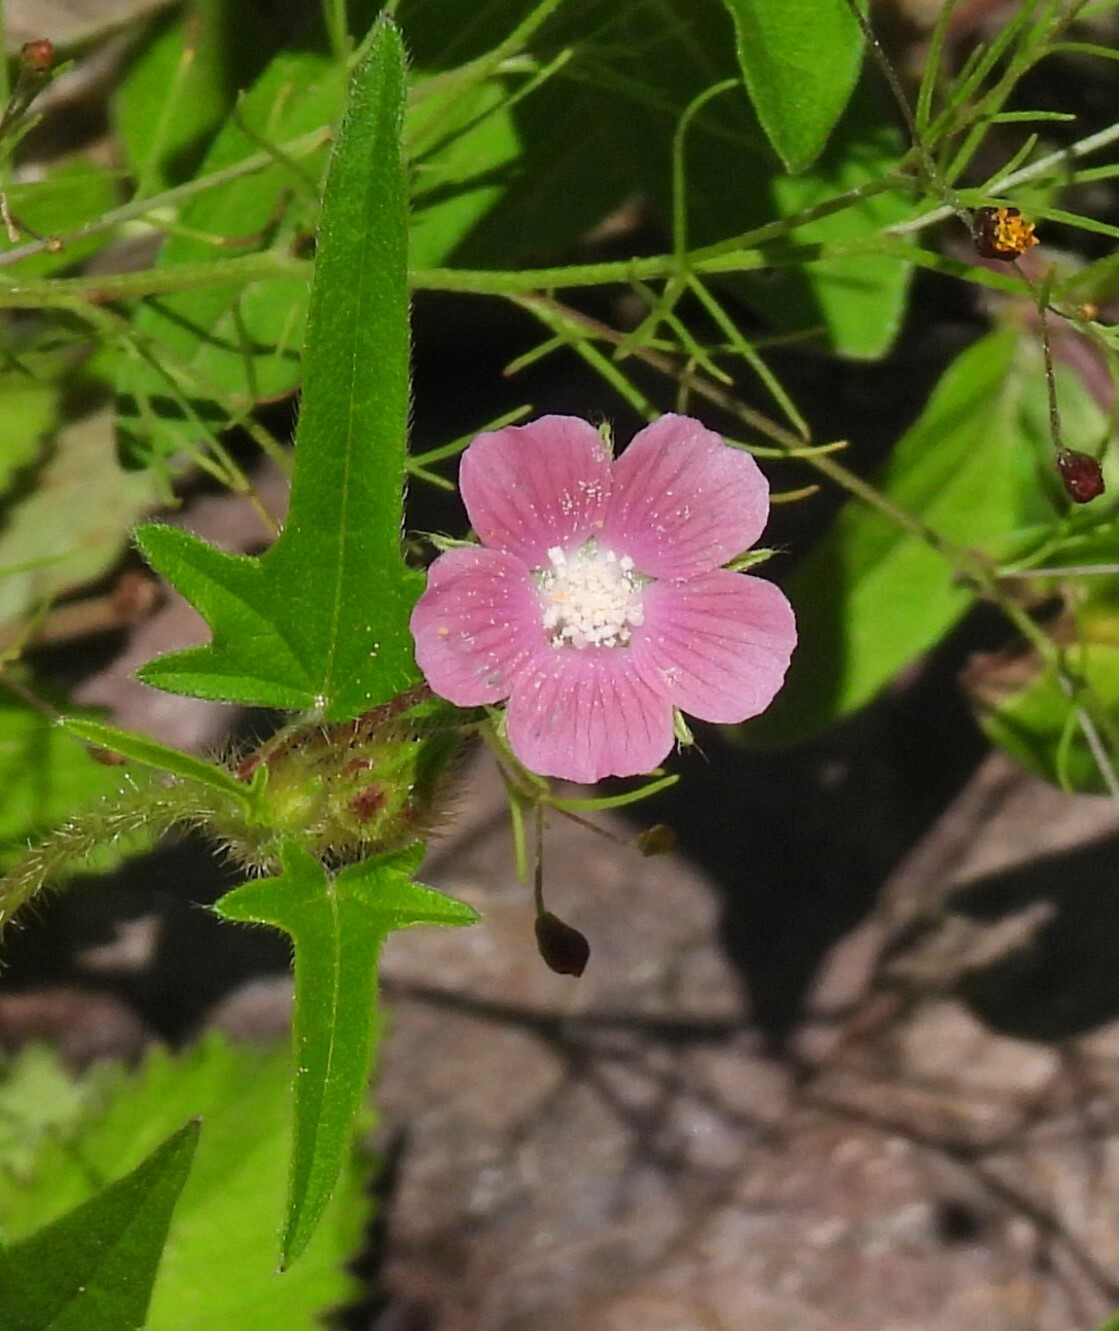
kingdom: Plantae
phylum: Tracheophyta
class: Magnoliopsida
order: Malvales
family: Malvaceae
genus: Anoda
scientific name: Anoda cristata
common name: Spurred anoda
